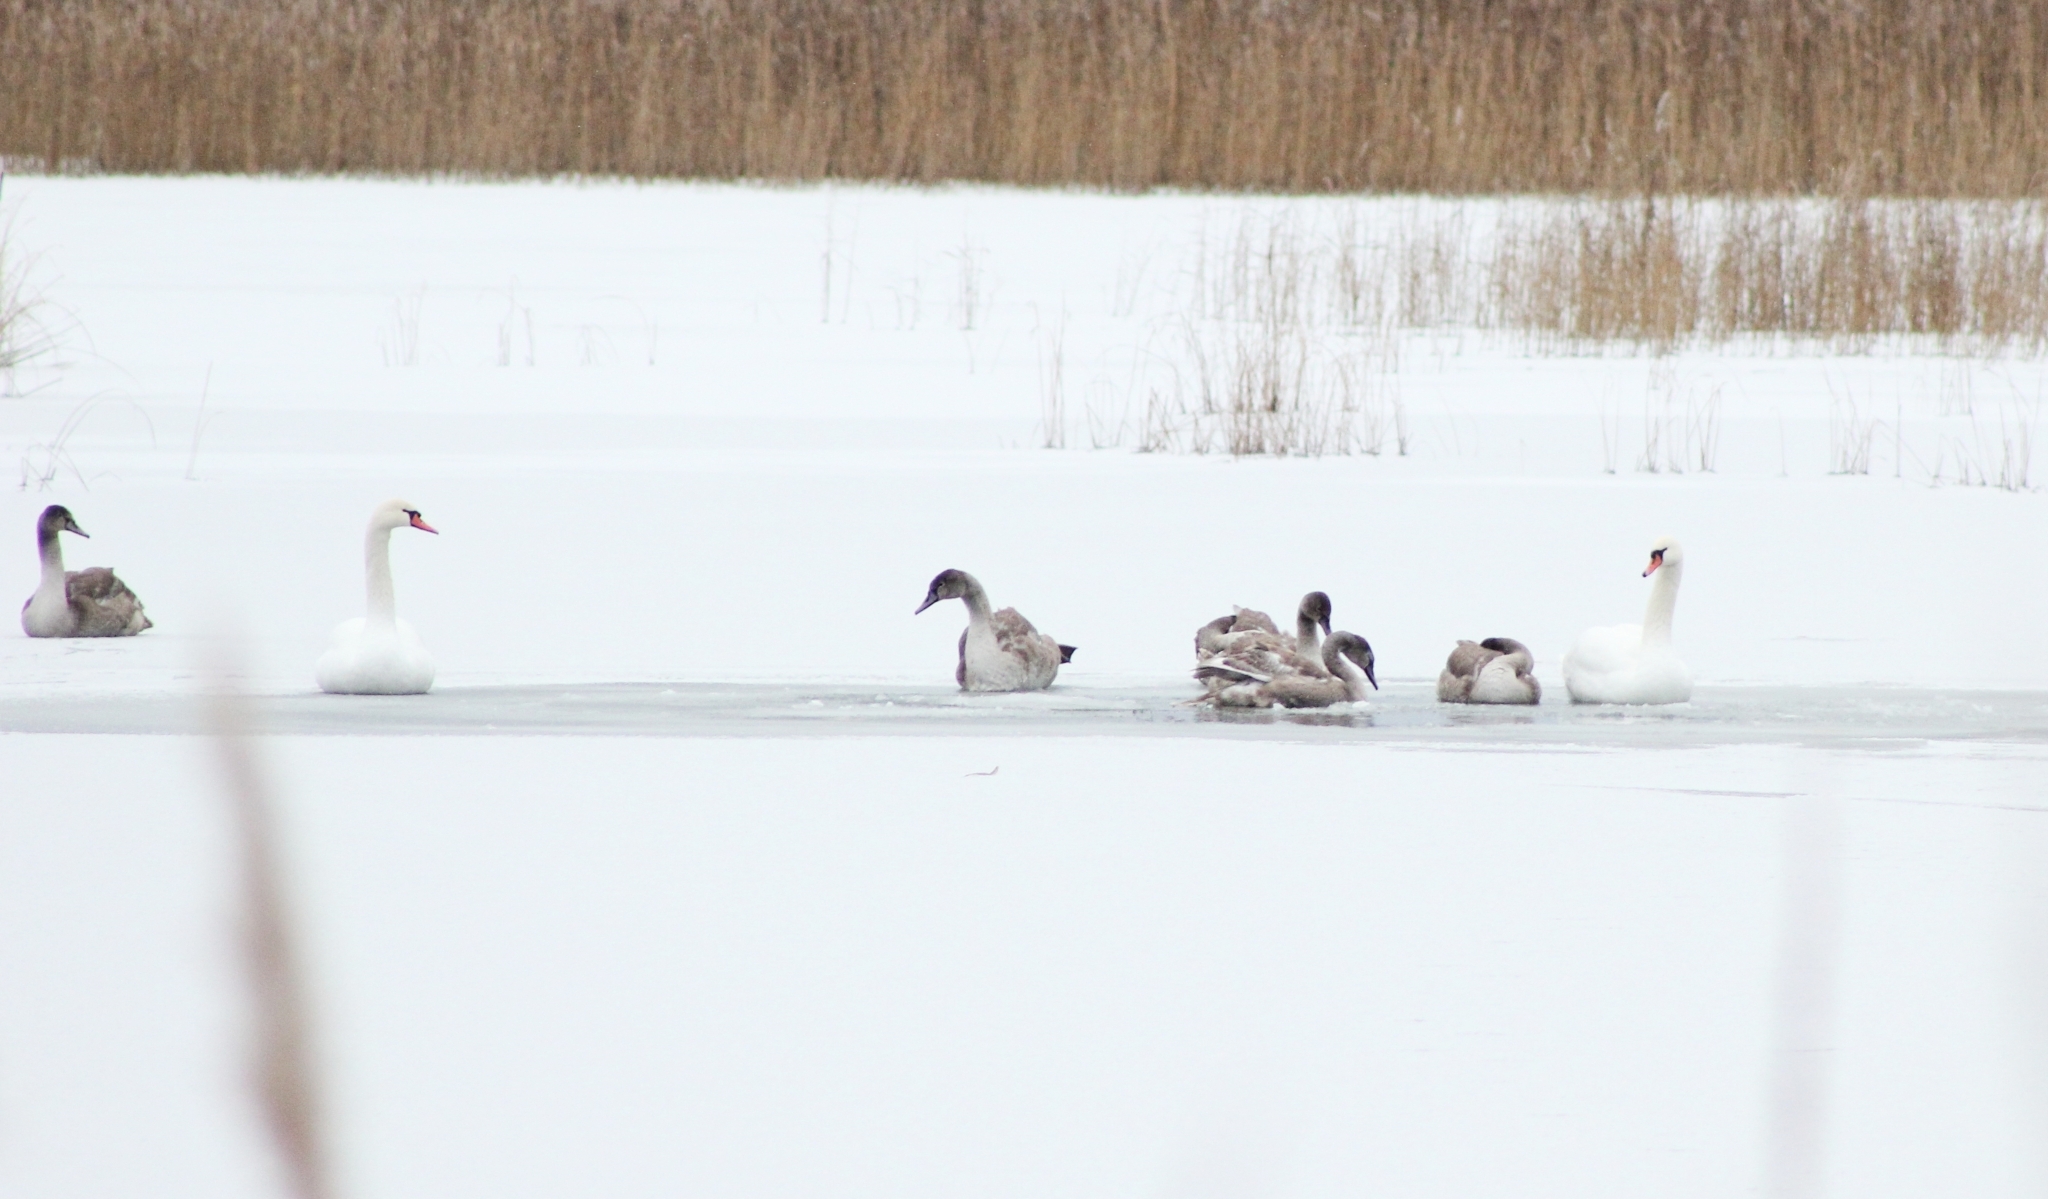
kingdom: Animalia
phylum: Chordata
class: Aves
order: Anseriformes
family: Anatidae
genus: Cygnus
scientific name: Cygnus olor
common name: Mute swan
